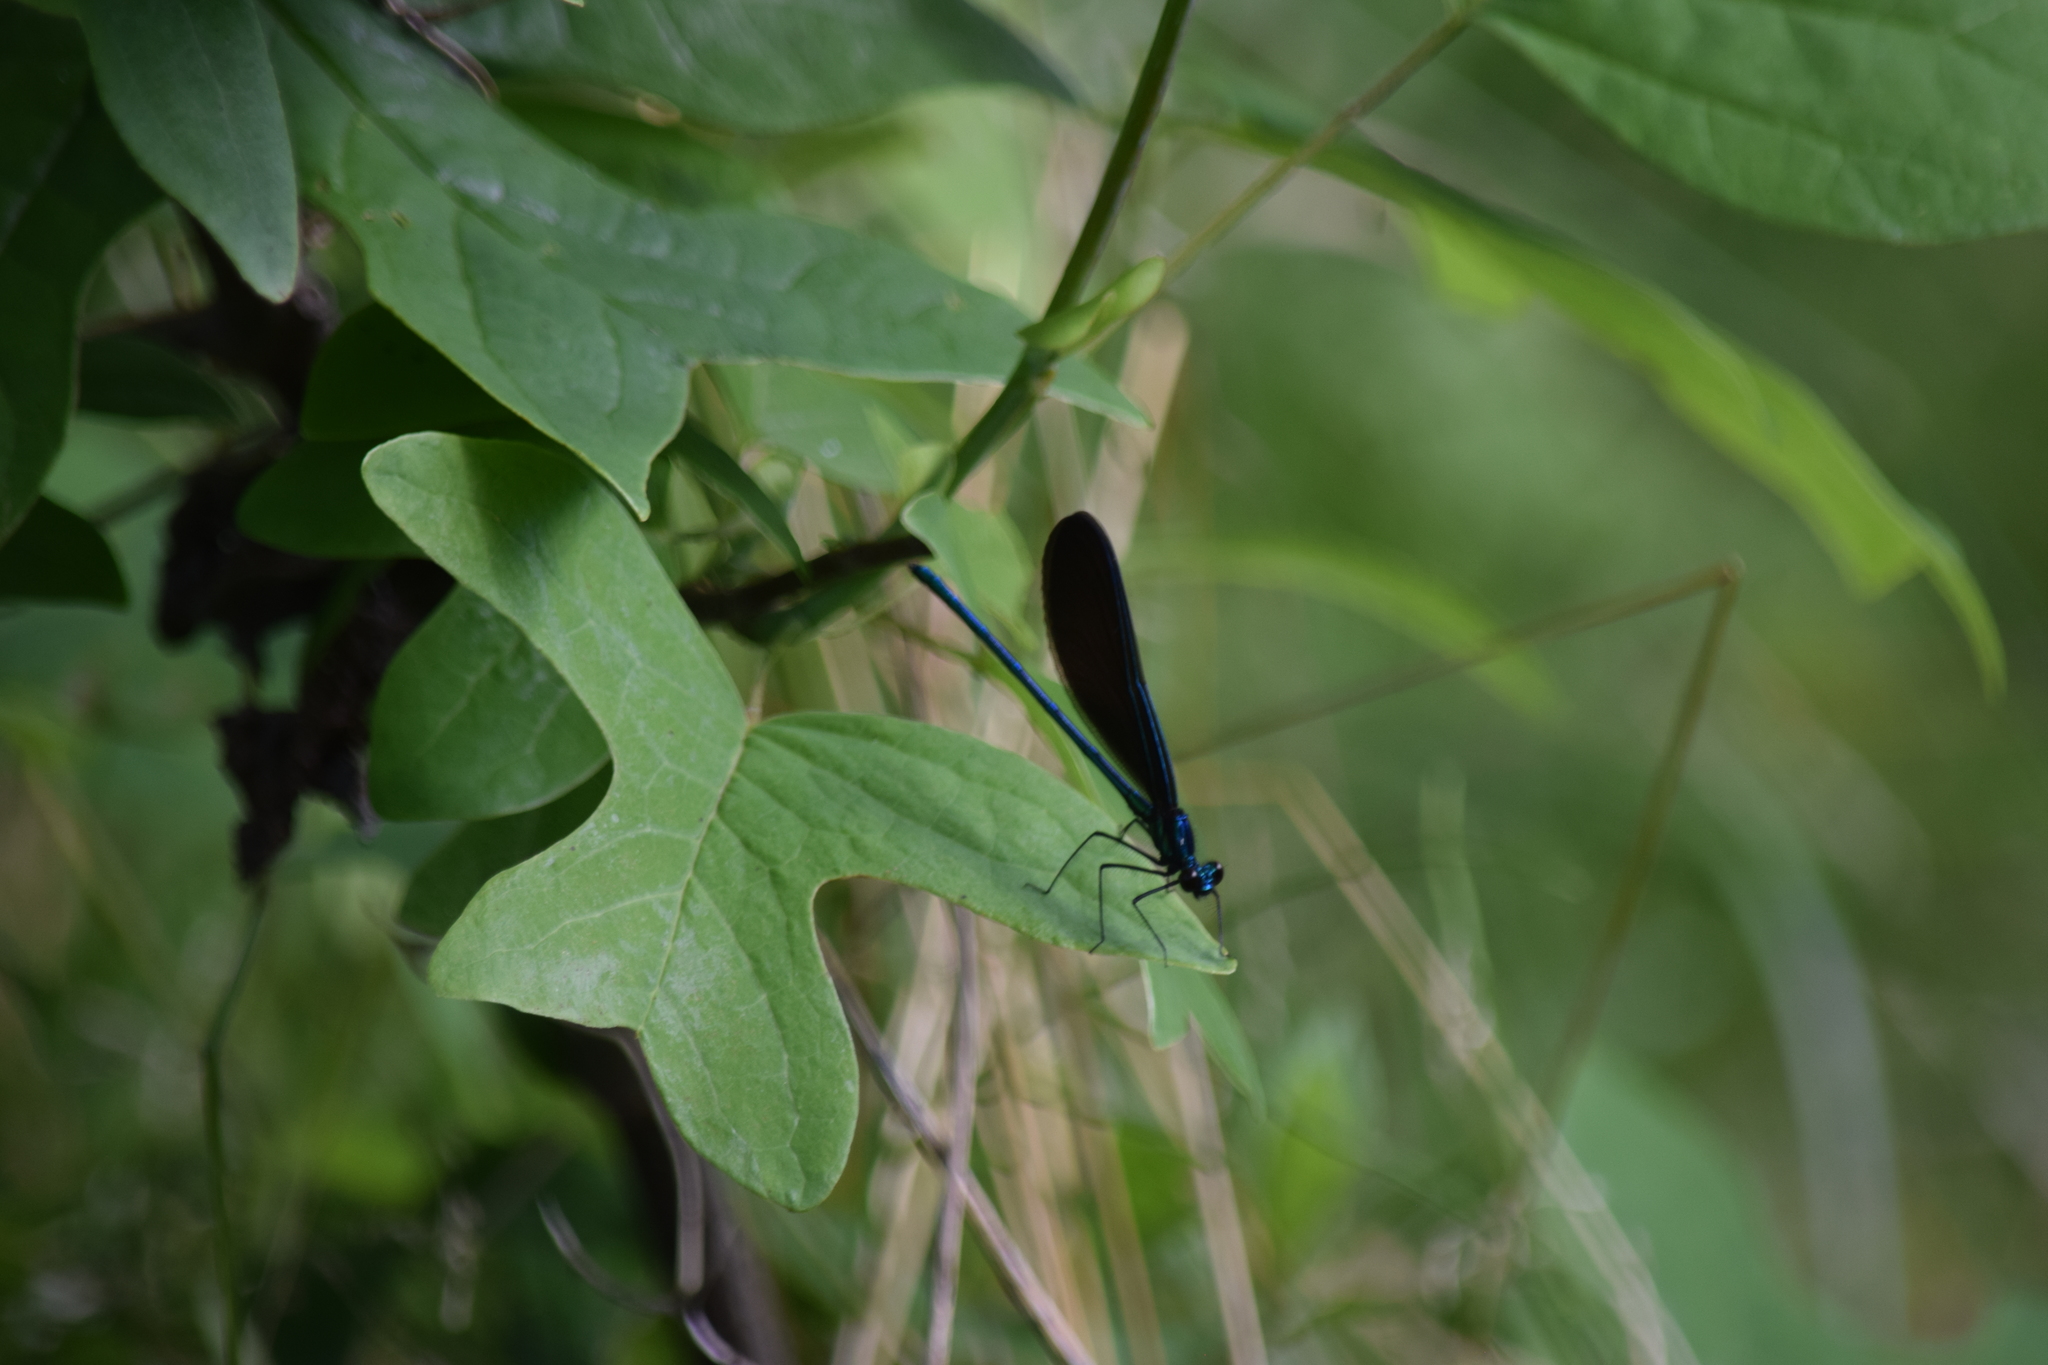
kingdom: Animalia
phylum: Arthropoda
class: Insecta
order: Odonata
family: Calopterygidae
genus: Calopteryx
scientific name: Calopteryx maculata
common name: Ebony jewelwing
